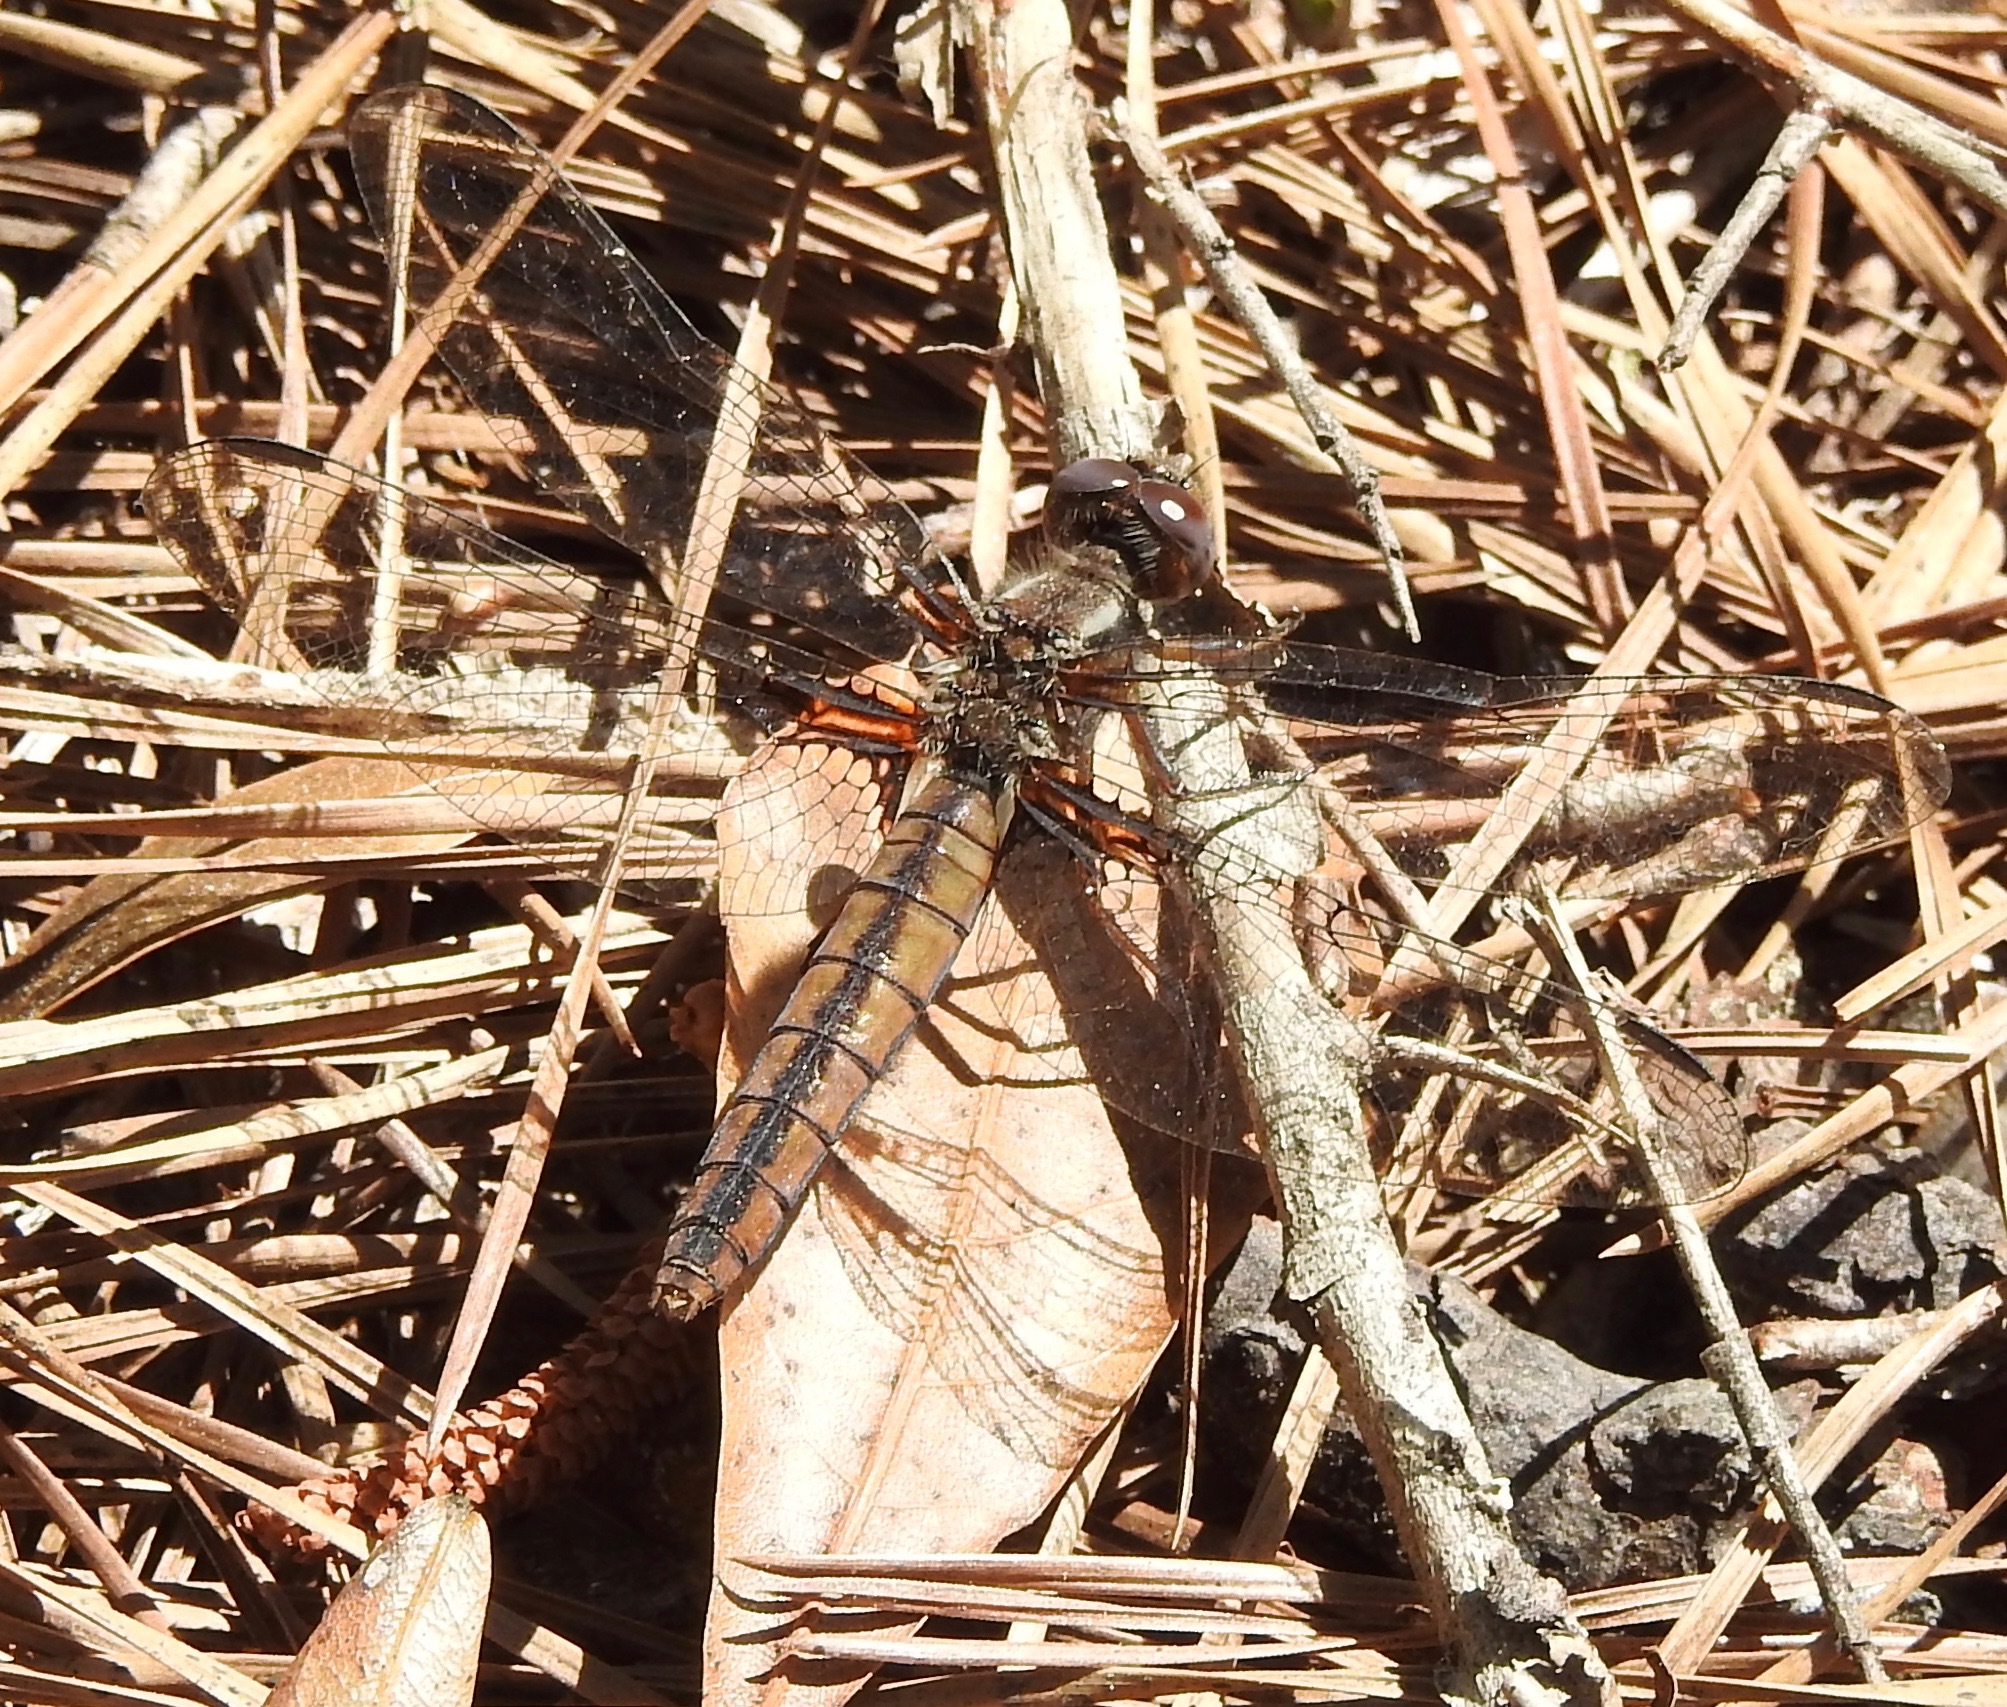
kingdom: Animalia
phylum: Arthropoda
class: Insecta
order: Odonata
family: Libellulidae
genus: Ladona
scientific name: Ladona deplanata
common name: Blue corporal
